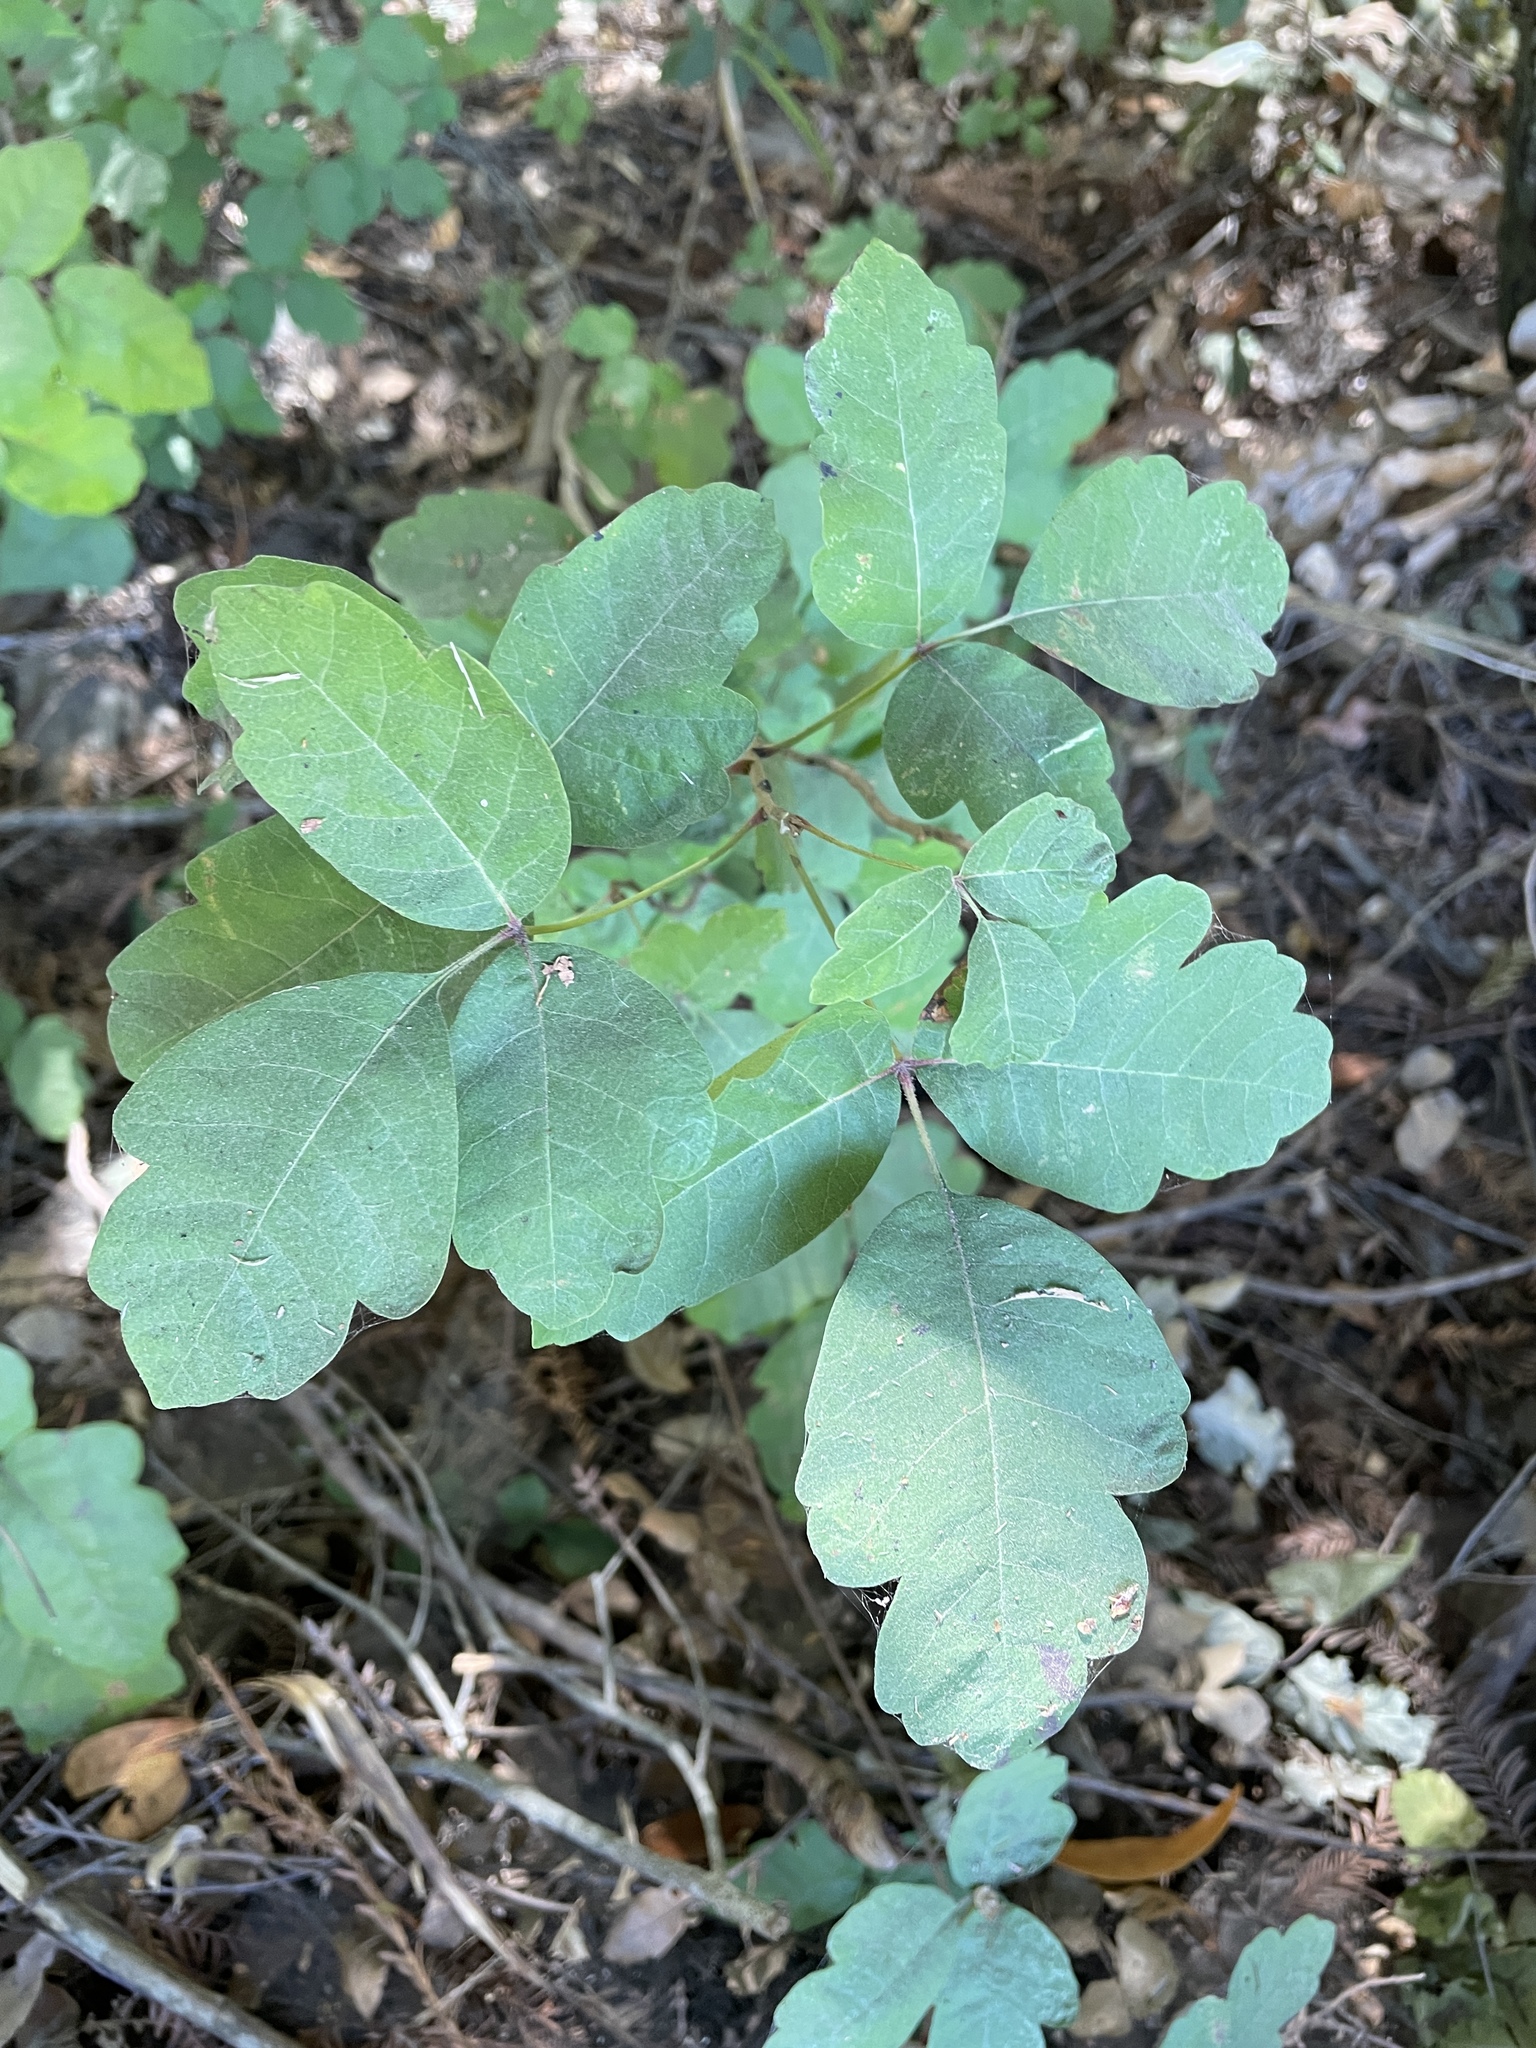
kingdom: Plantae
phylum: Tracheophyta
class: Magnoliopsida
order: Sapindales
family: Anacardiaceae
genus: Toxicodendron
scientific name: Toxicodendron diversilobum
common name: Pacific poison-oak
